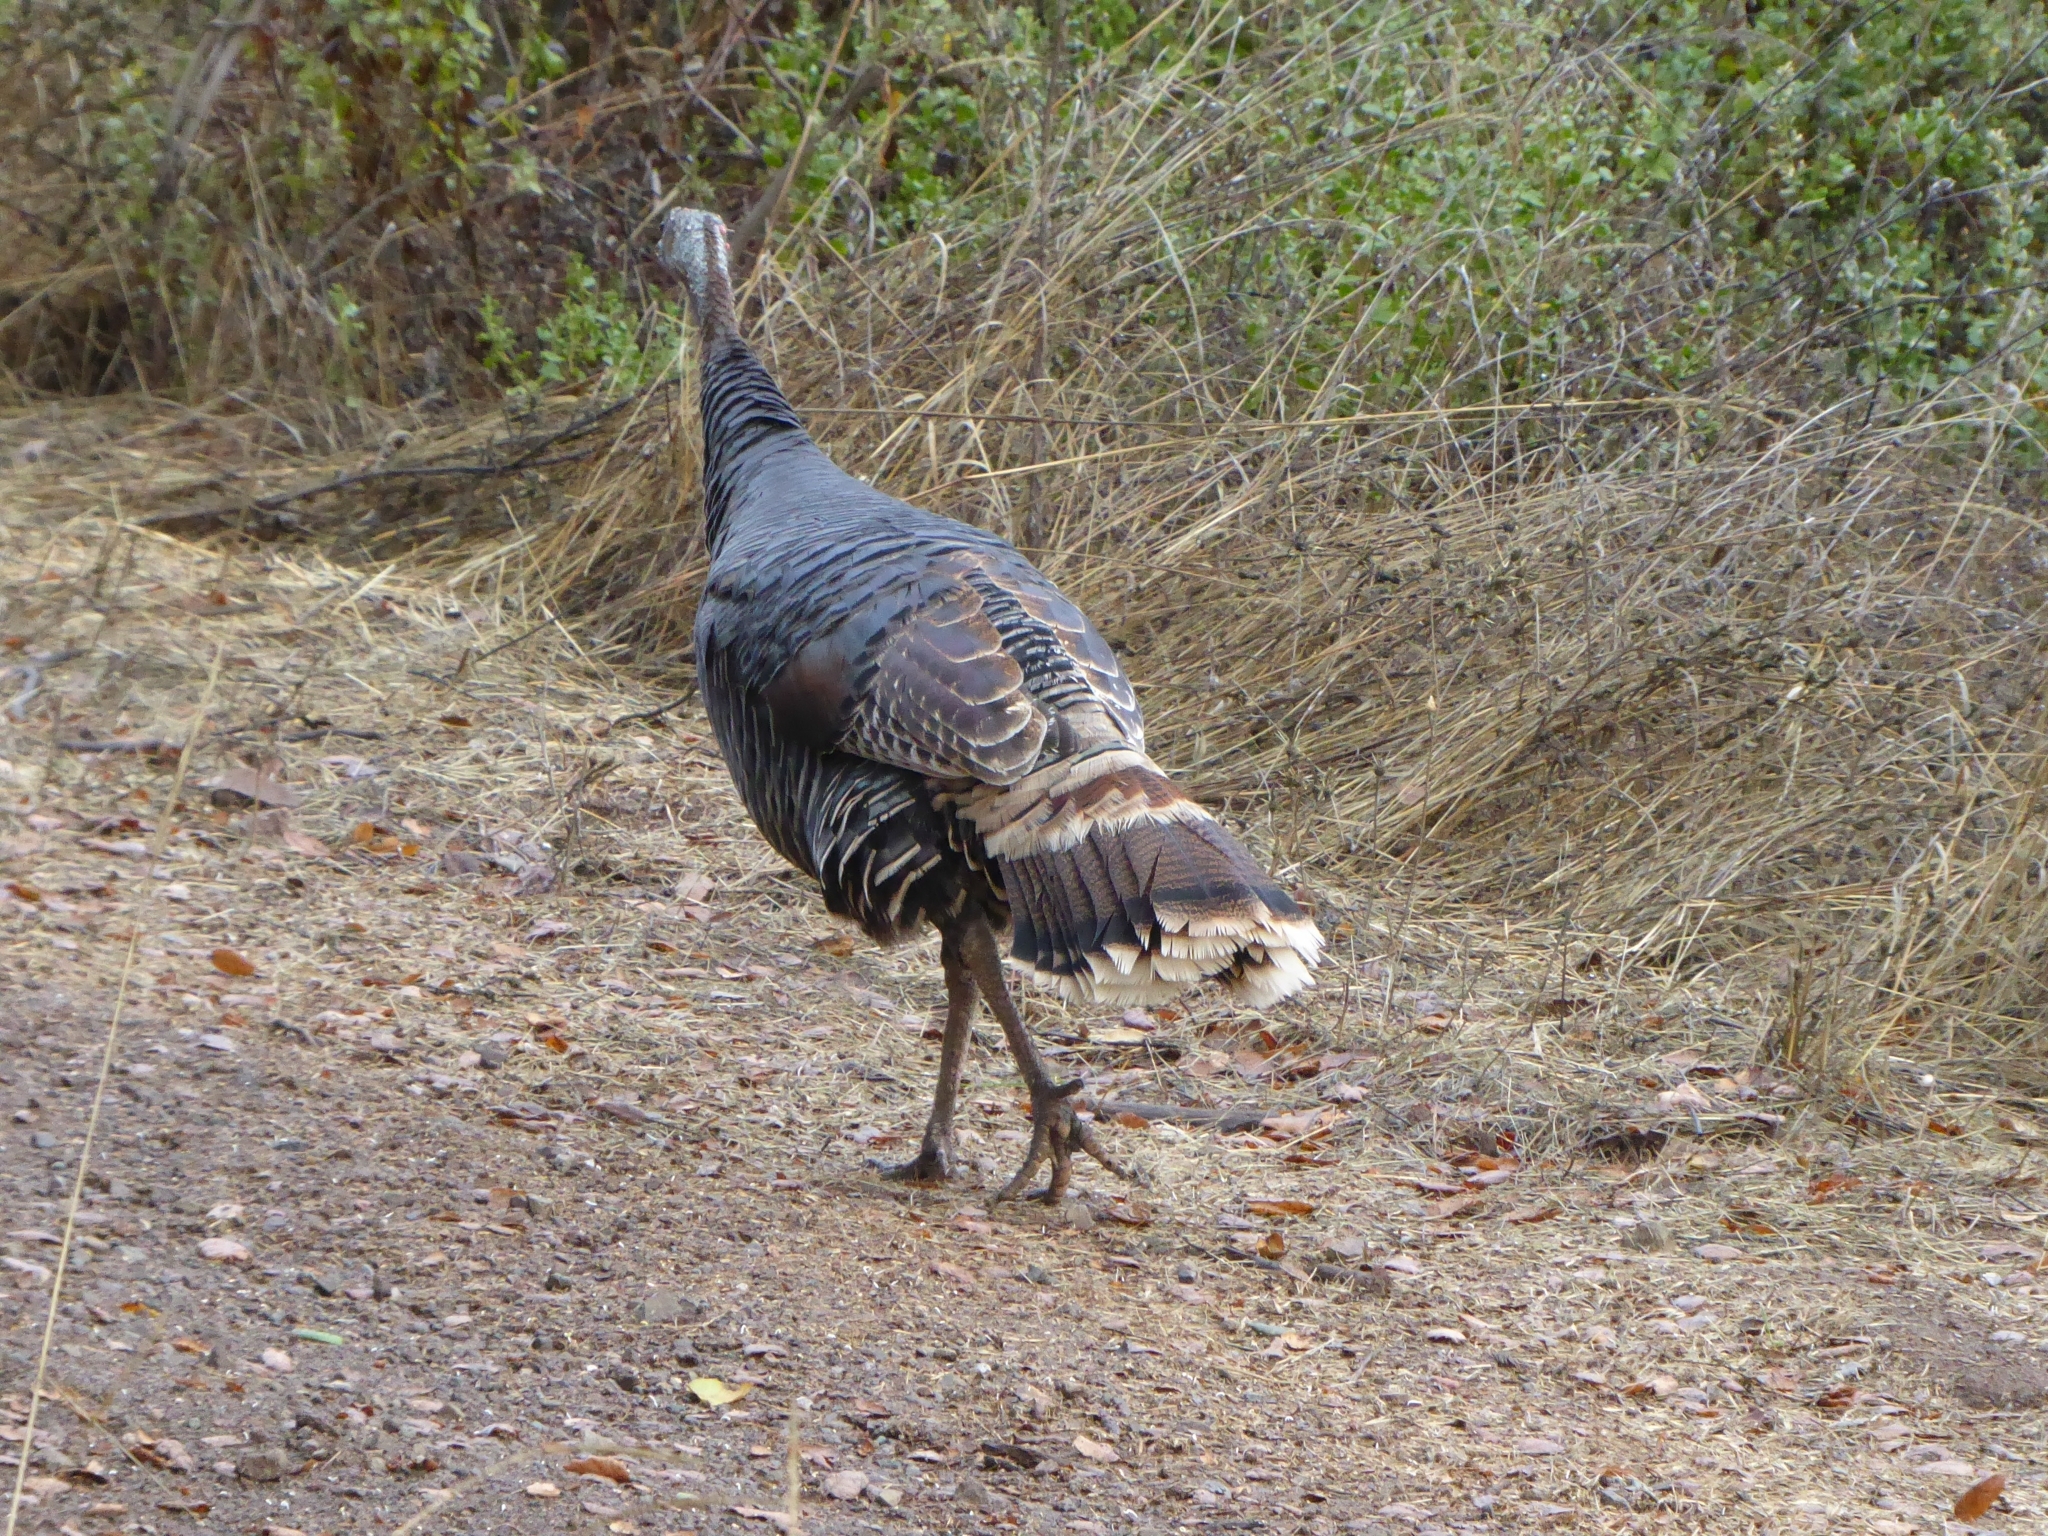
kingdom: Animalia
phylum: Chordata
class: Aves
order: Galliformes
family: Phasianidae
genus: Meleagris
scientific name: Meleagris gallopavo
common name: Wild turkey
